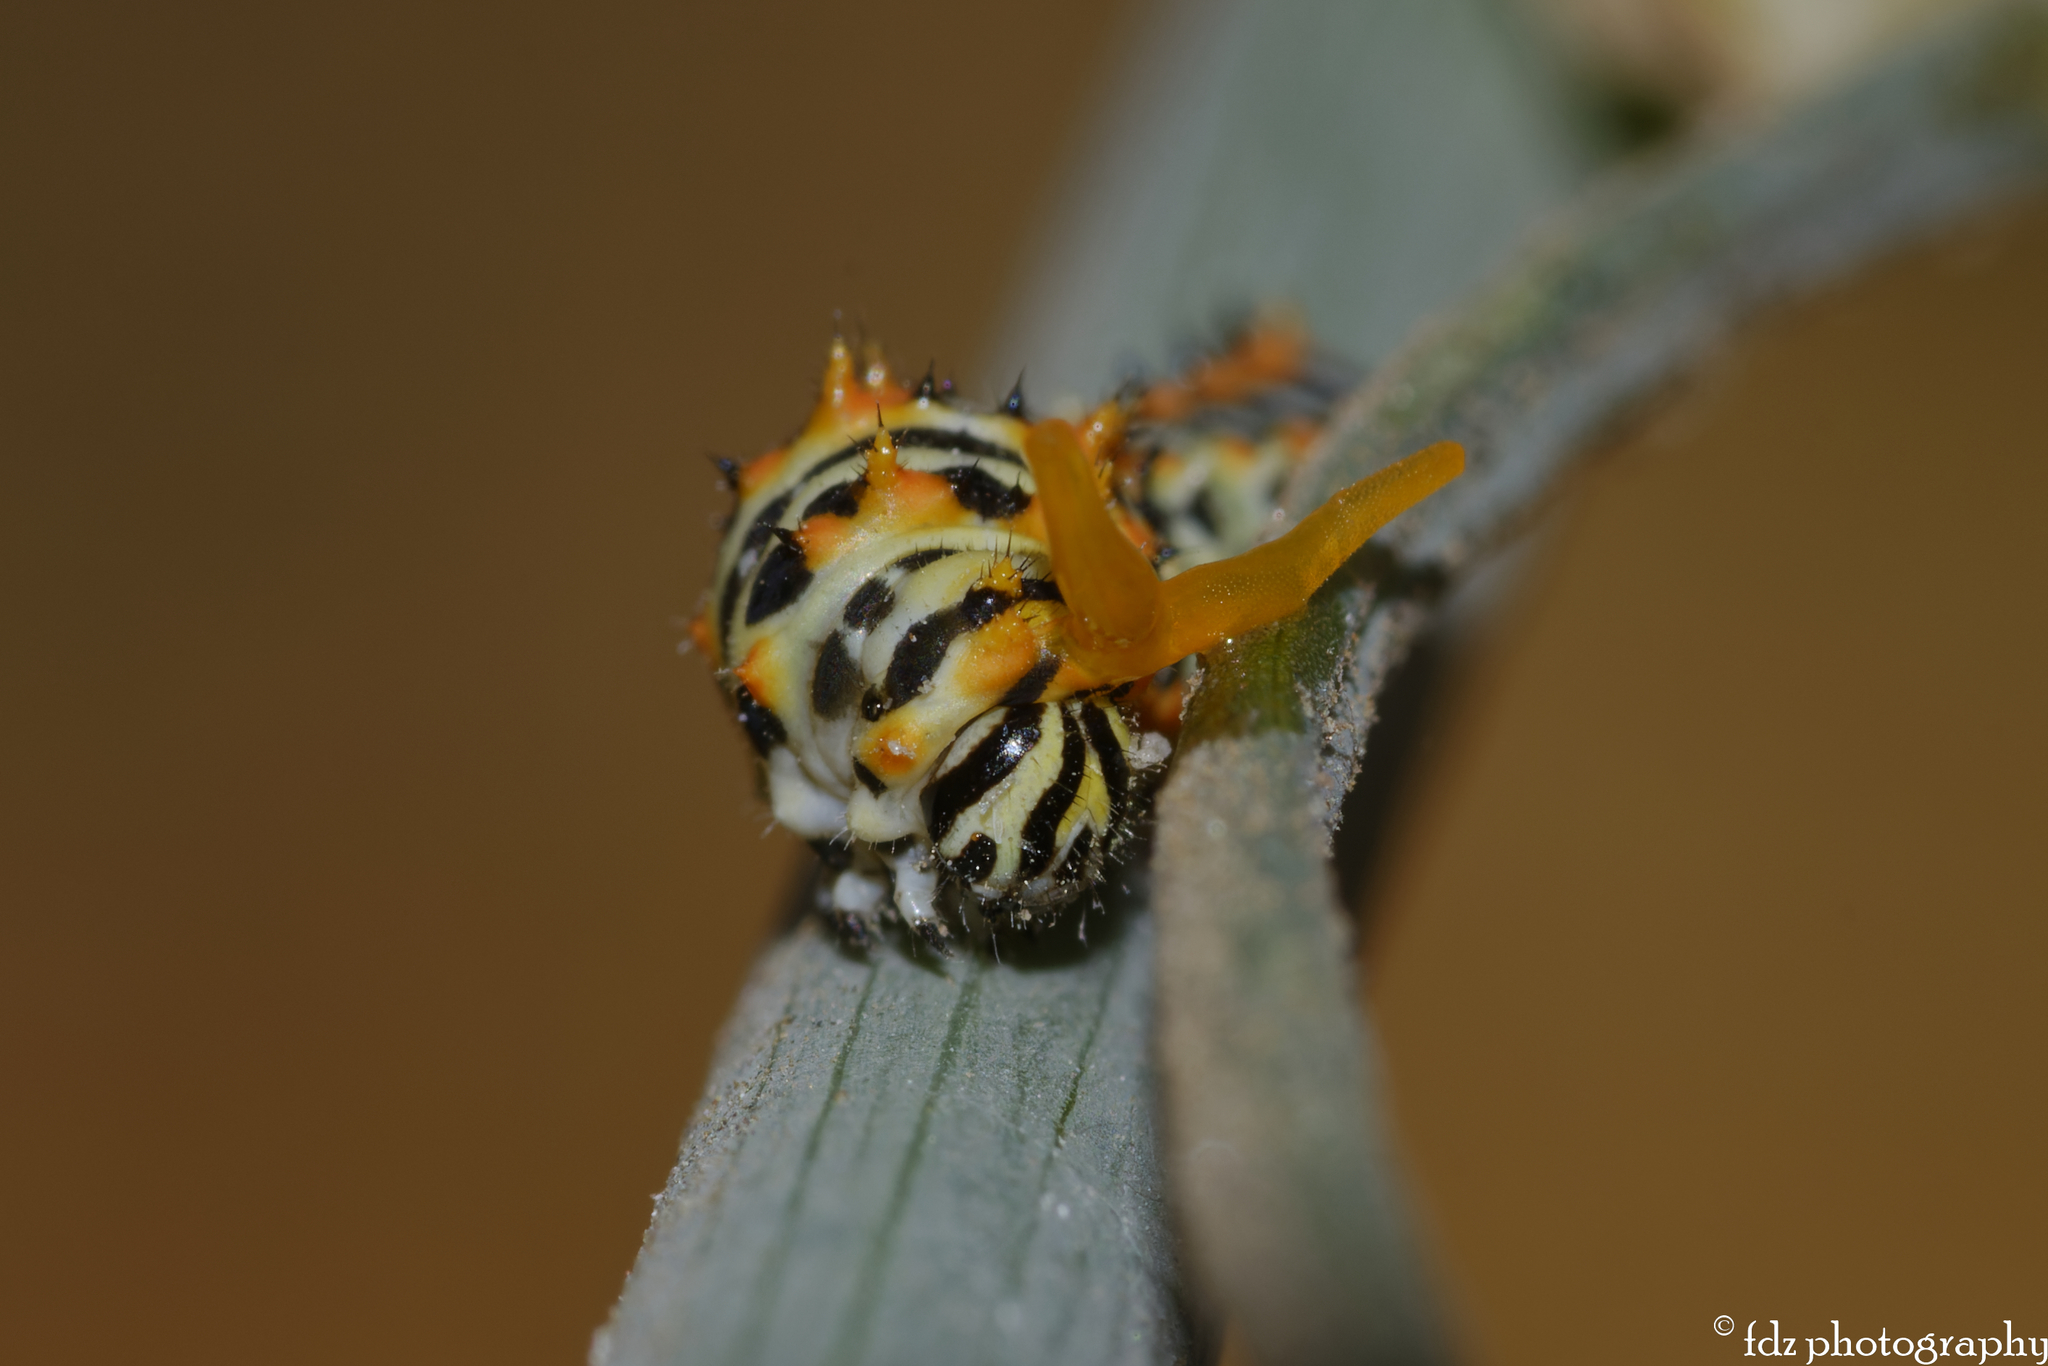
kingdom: Animalia
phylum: Arthropoda
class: Insecta
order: Lepidoptera
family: Papilionidae
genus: Papilio
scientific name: Papilio machaon
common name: Swallowtail
